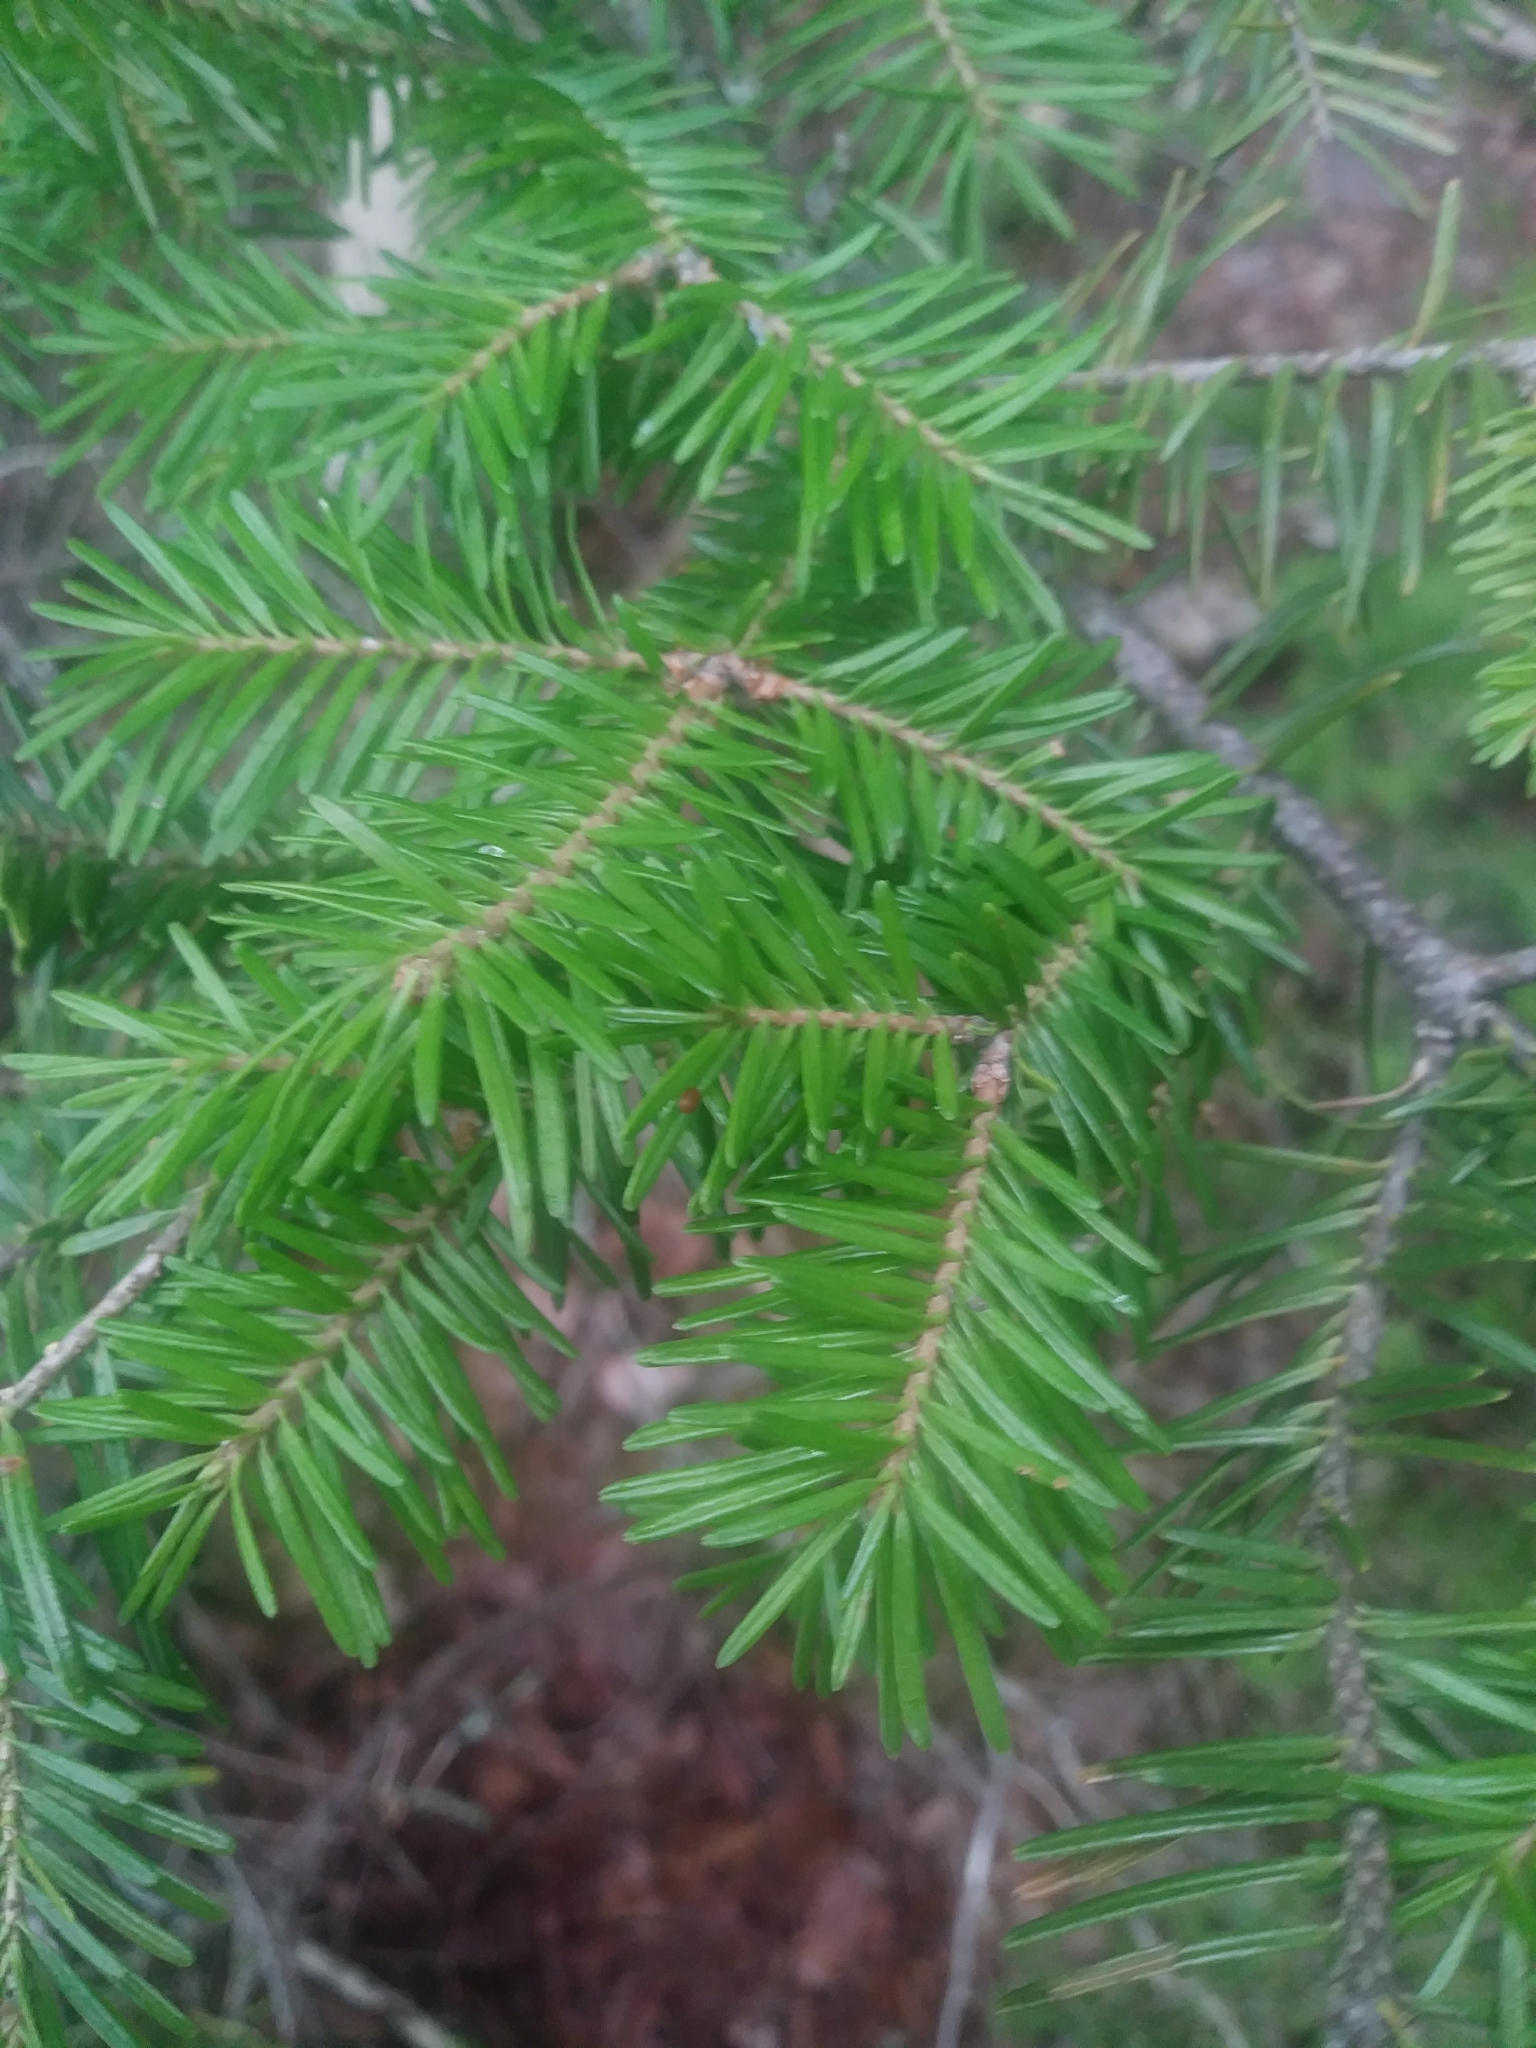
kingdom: Plantae
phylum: Tracheophyta
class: Pinopsida
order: Pinales
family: Pinaceae
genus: Abies
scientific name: Abies balsamea
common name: Balsam fir
